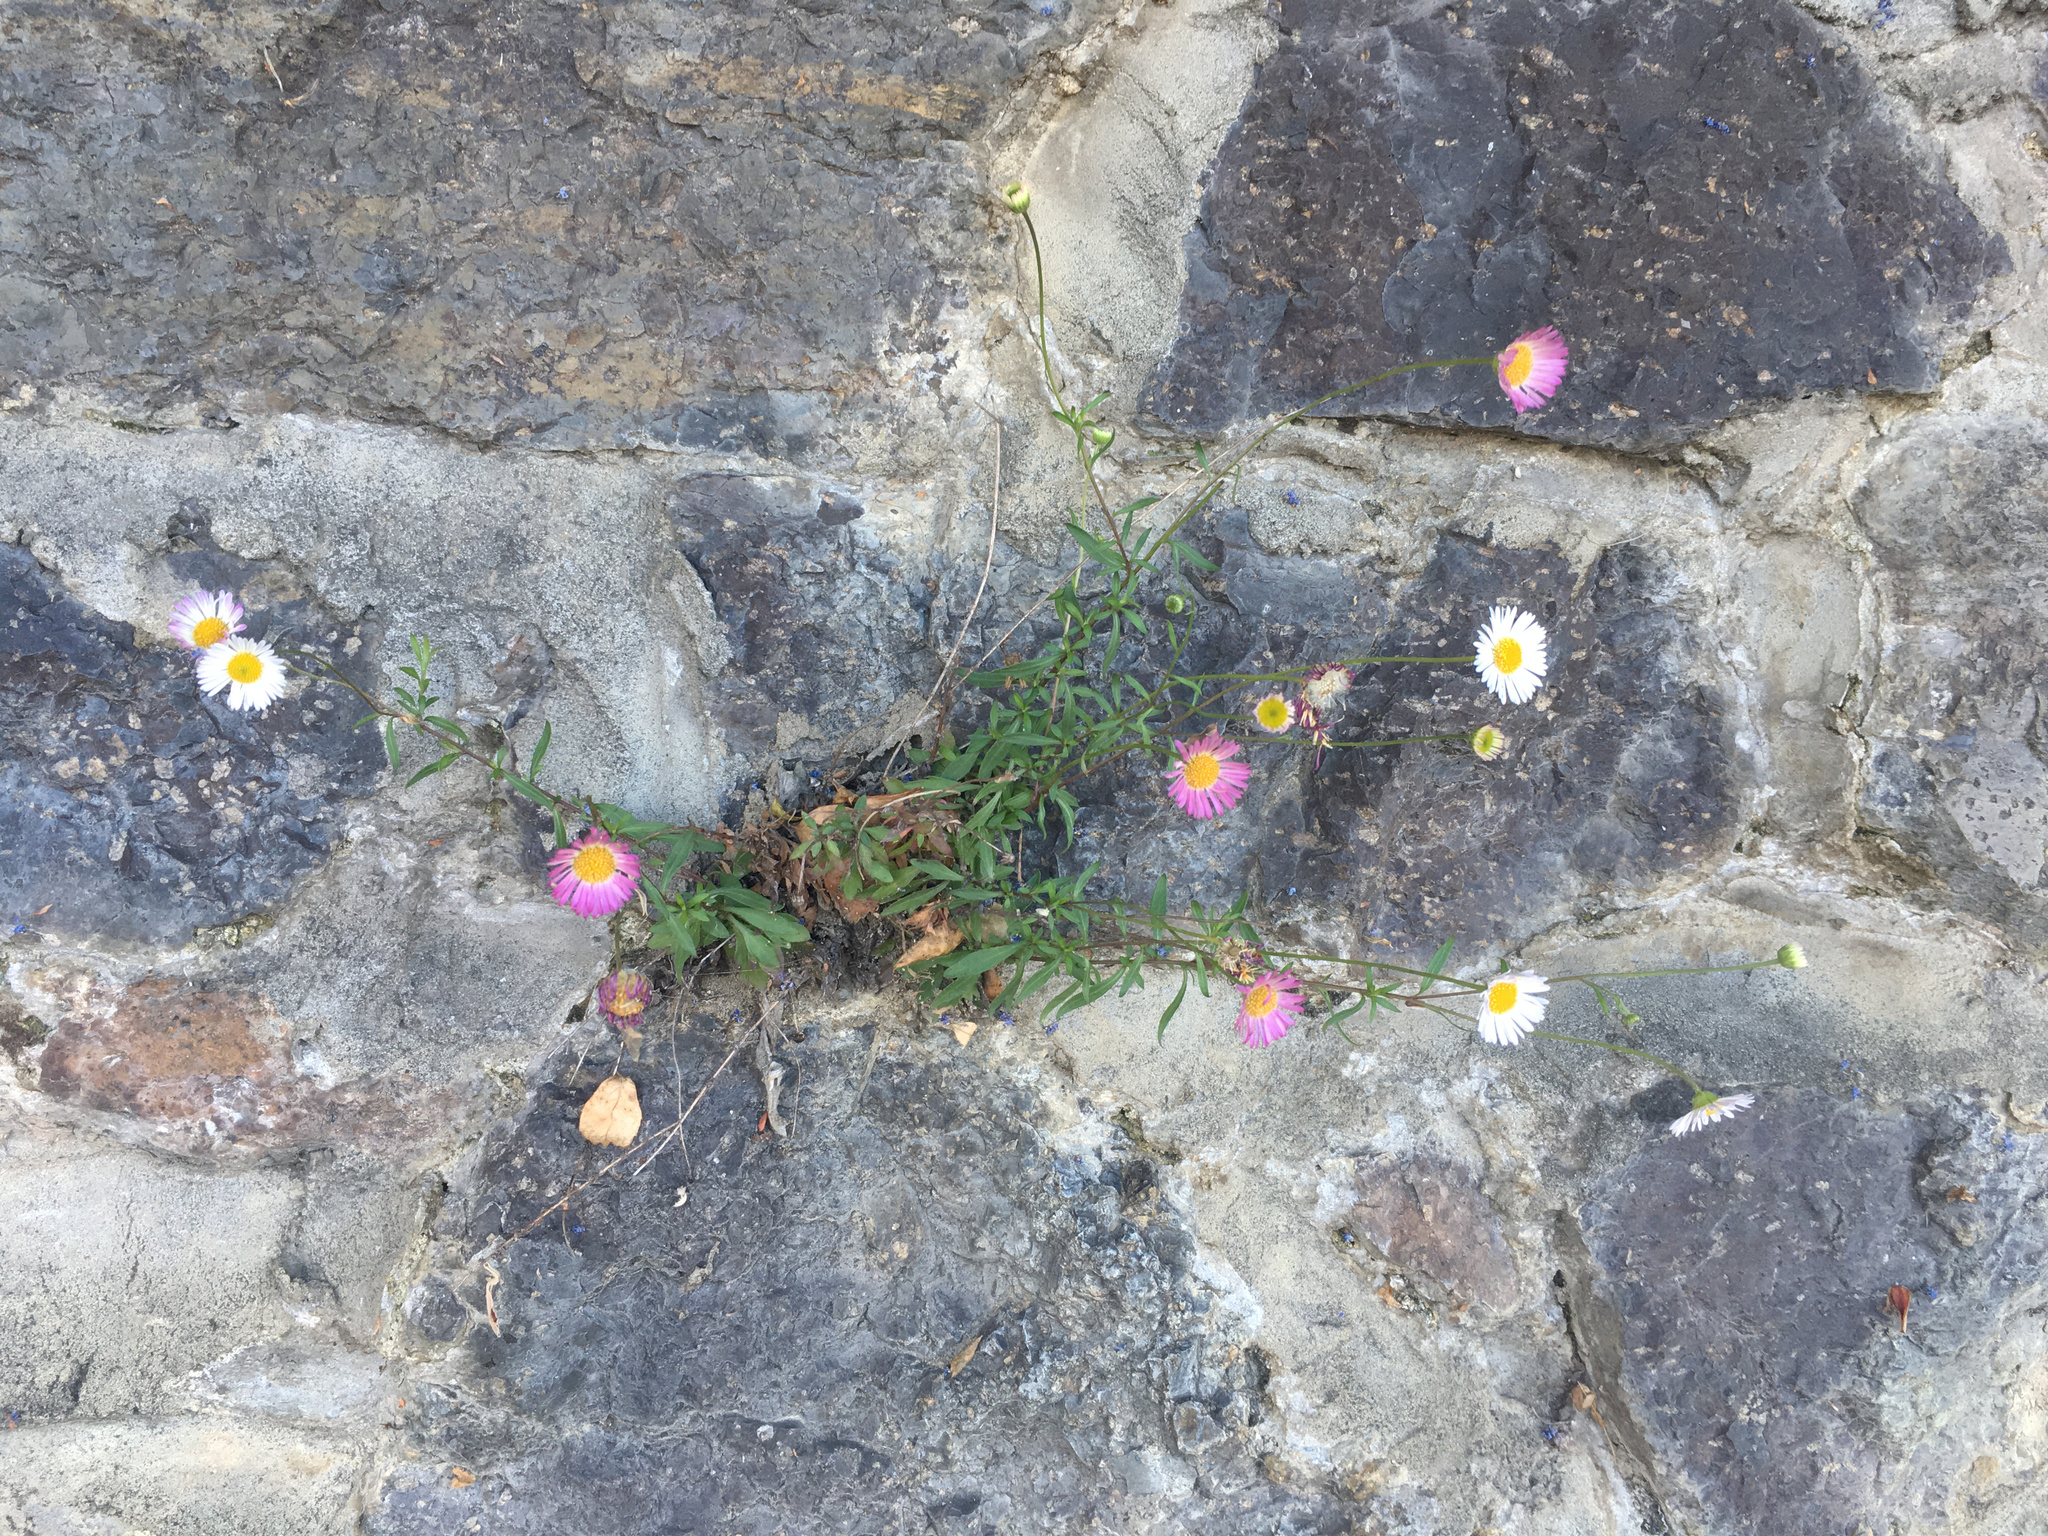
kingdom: Plantae
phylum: Tracheophyta
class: Magnoliopsida
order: Asterales
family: Asteraceae
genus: Erigeron
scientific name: Erigeron karvinskianus
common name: Mexican fleabane
